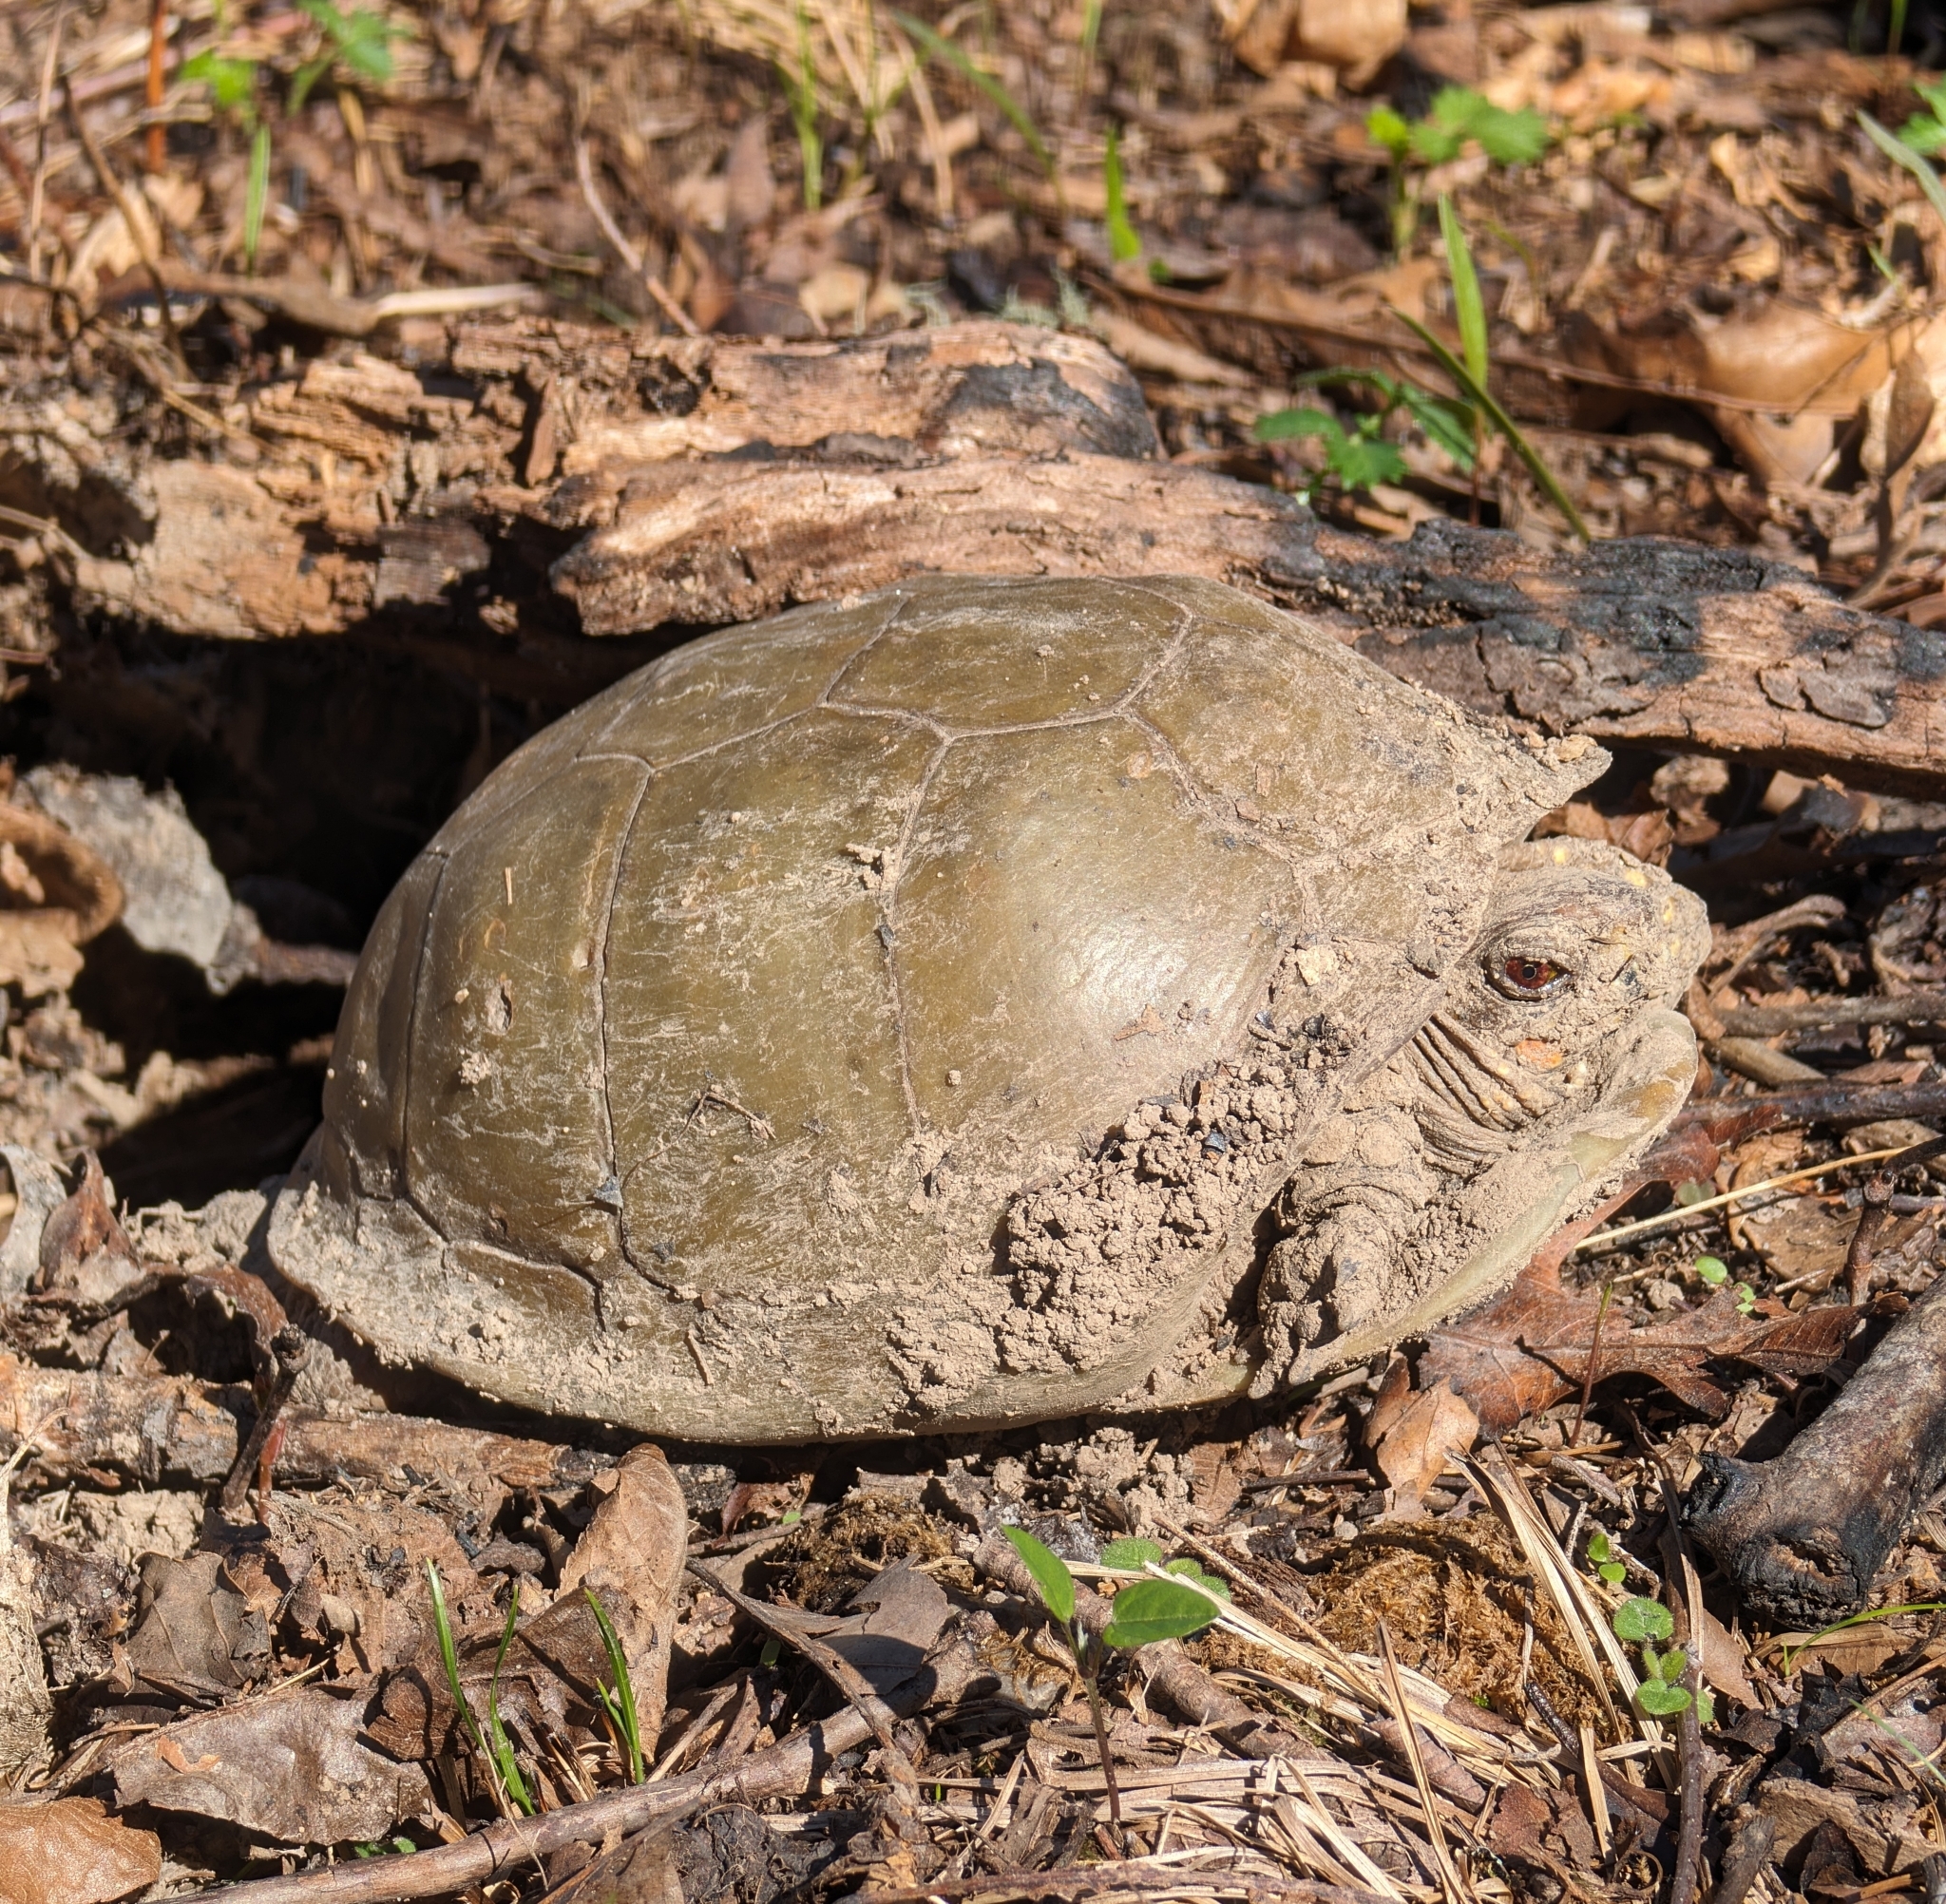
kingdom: Animalia
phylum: Chordata
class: Testudines
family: Emydidae
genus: Terrapene
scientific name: Terrapene carolina
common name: Common box turtle
